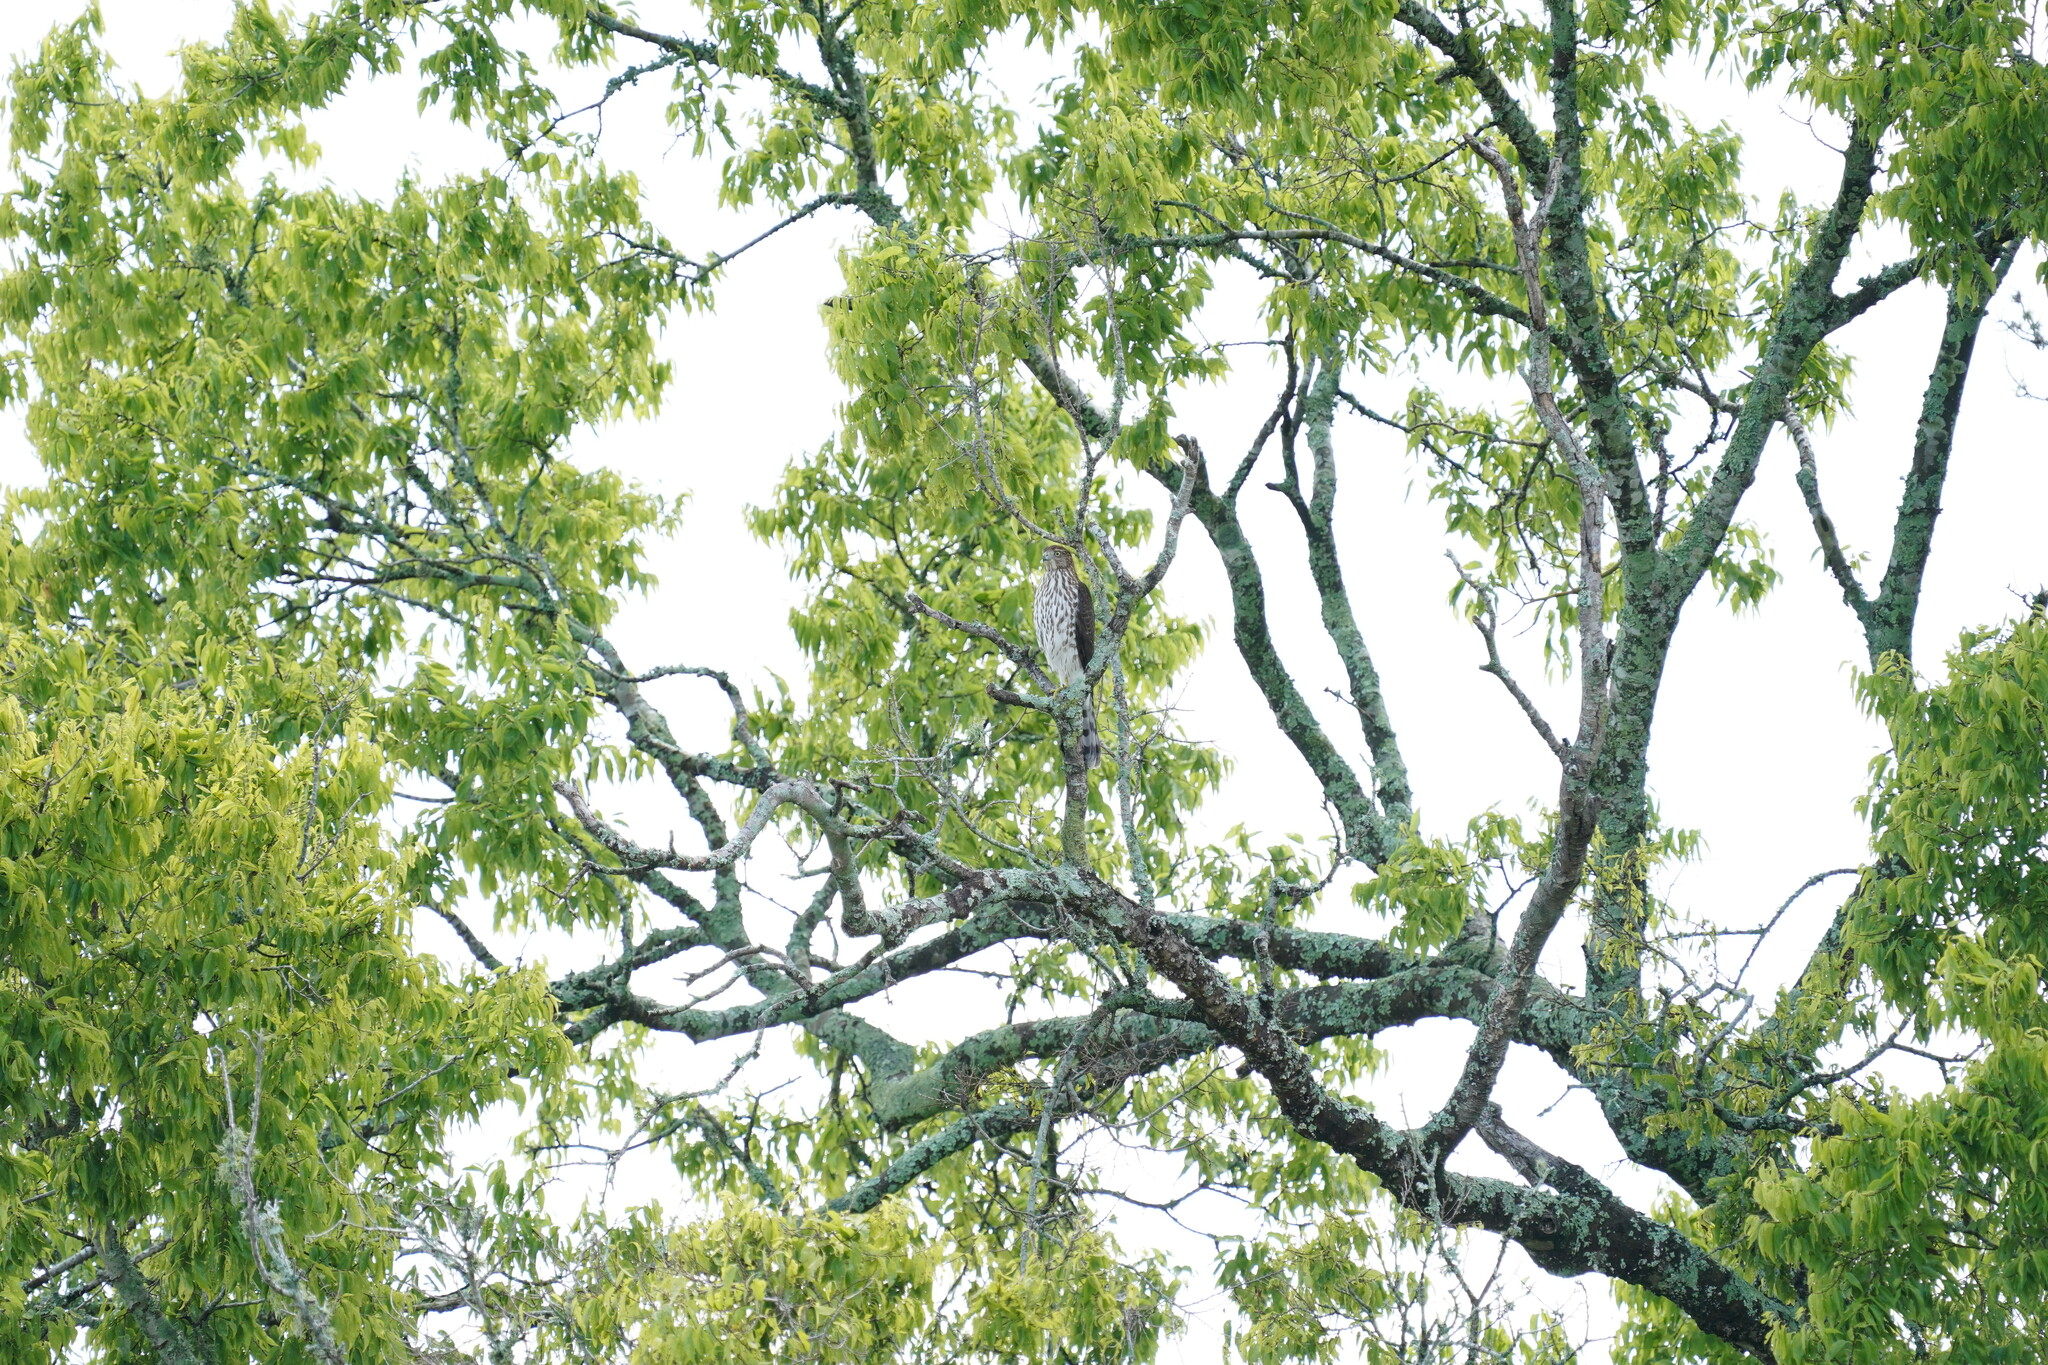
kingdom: Animalia
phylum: Chordata
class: Aves
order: Accipitriformes
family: Accipitridae
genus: Accipiter
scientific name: Accipiter cooperii
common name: Cooper's hawk
